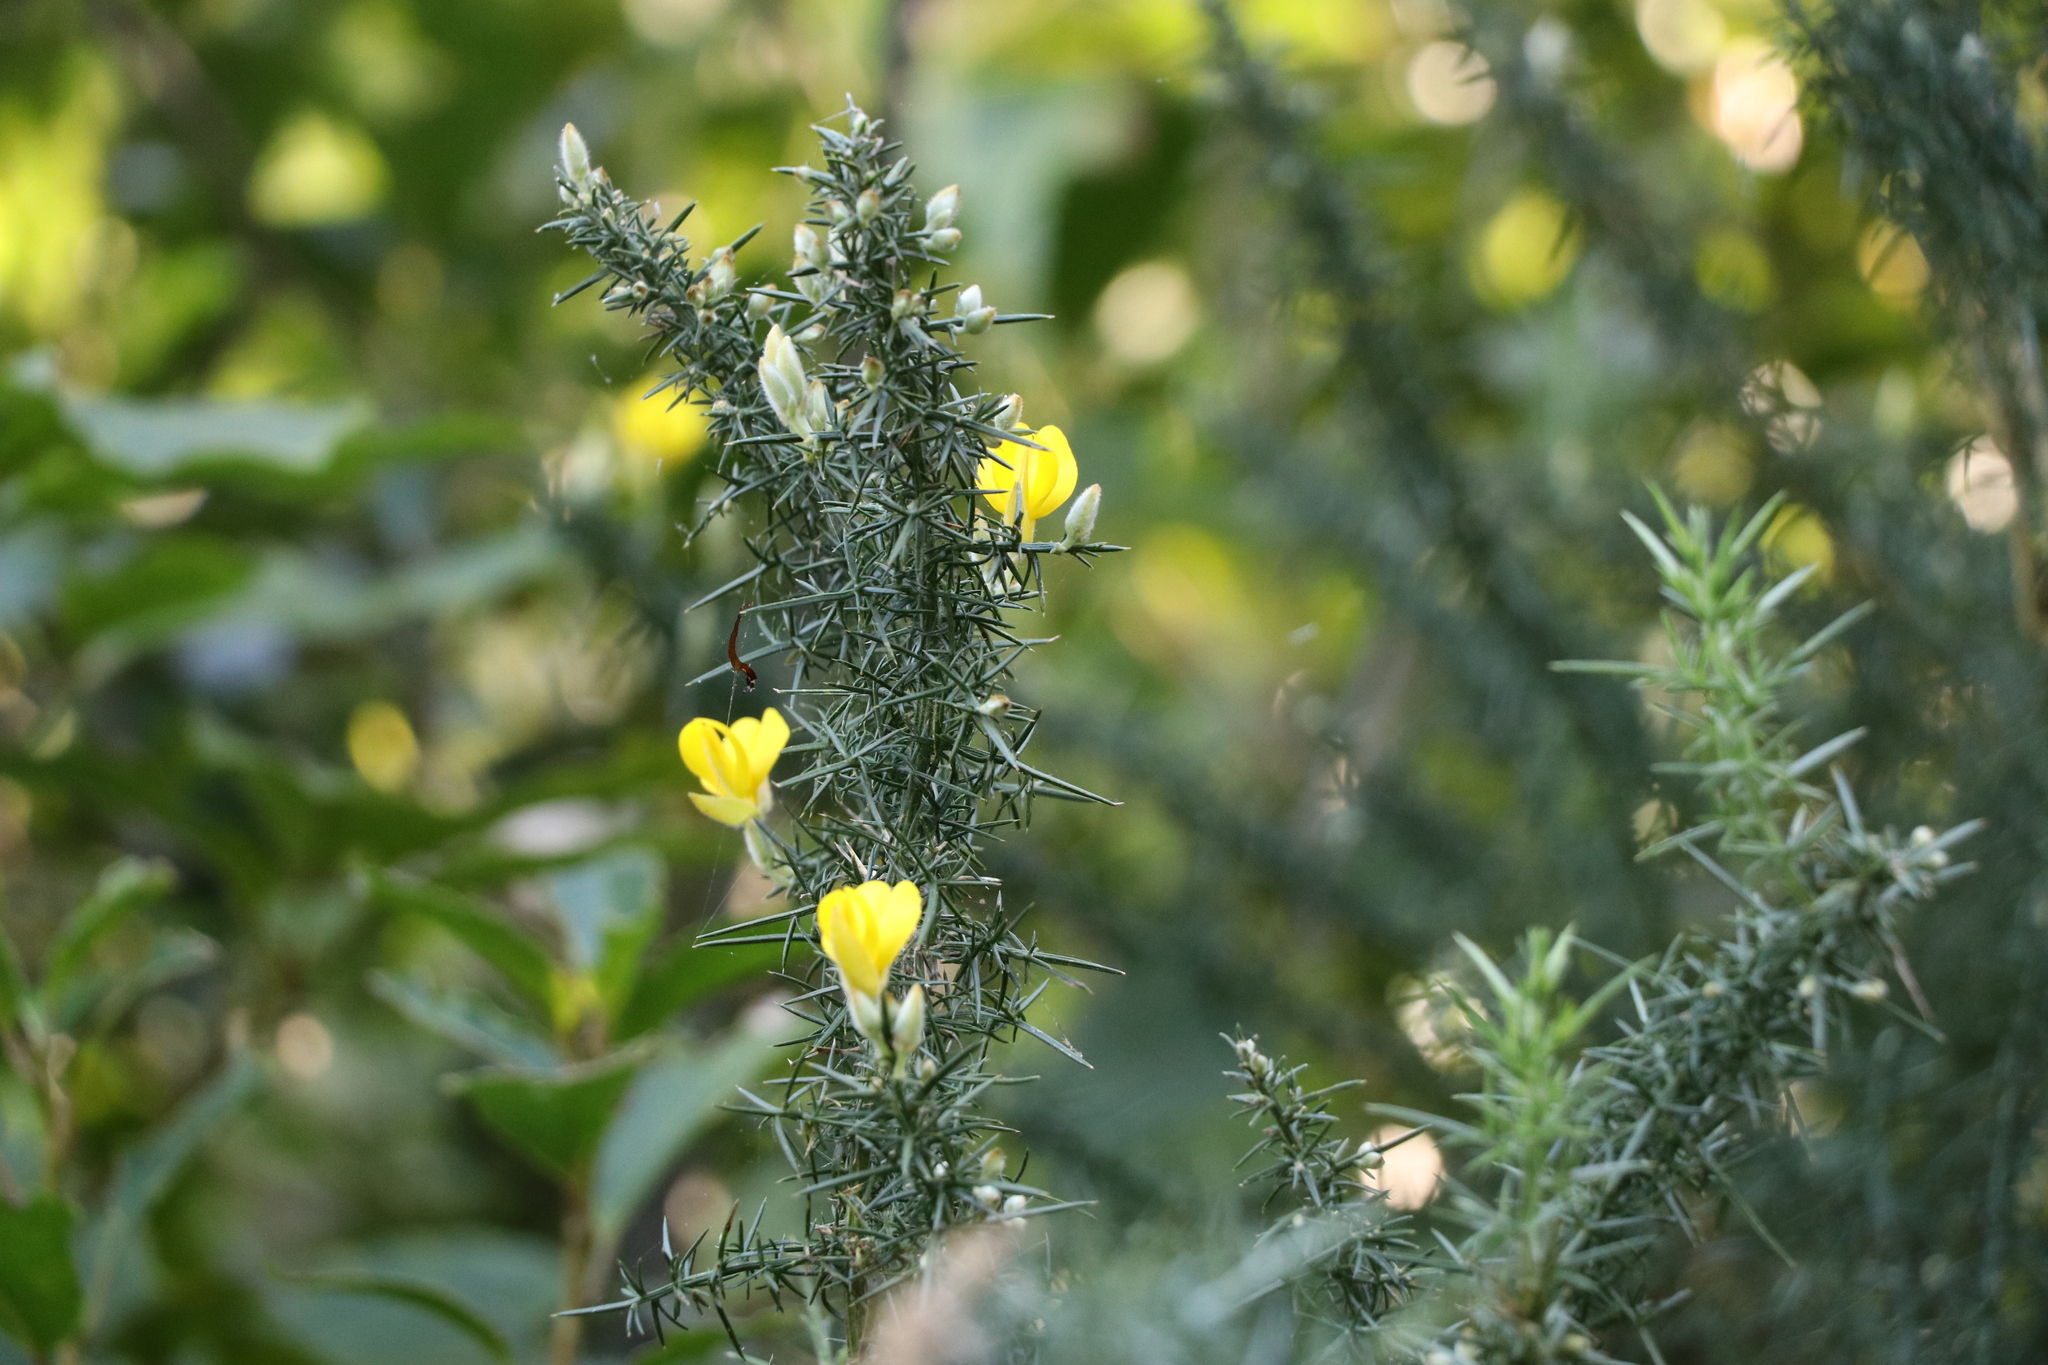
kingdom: Plantae
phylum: Tracheophyta
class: Magnoliopsida
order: Fabales
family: Fabaceae
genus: Ulex
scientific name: Ulex europaeus
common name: Common gorse
